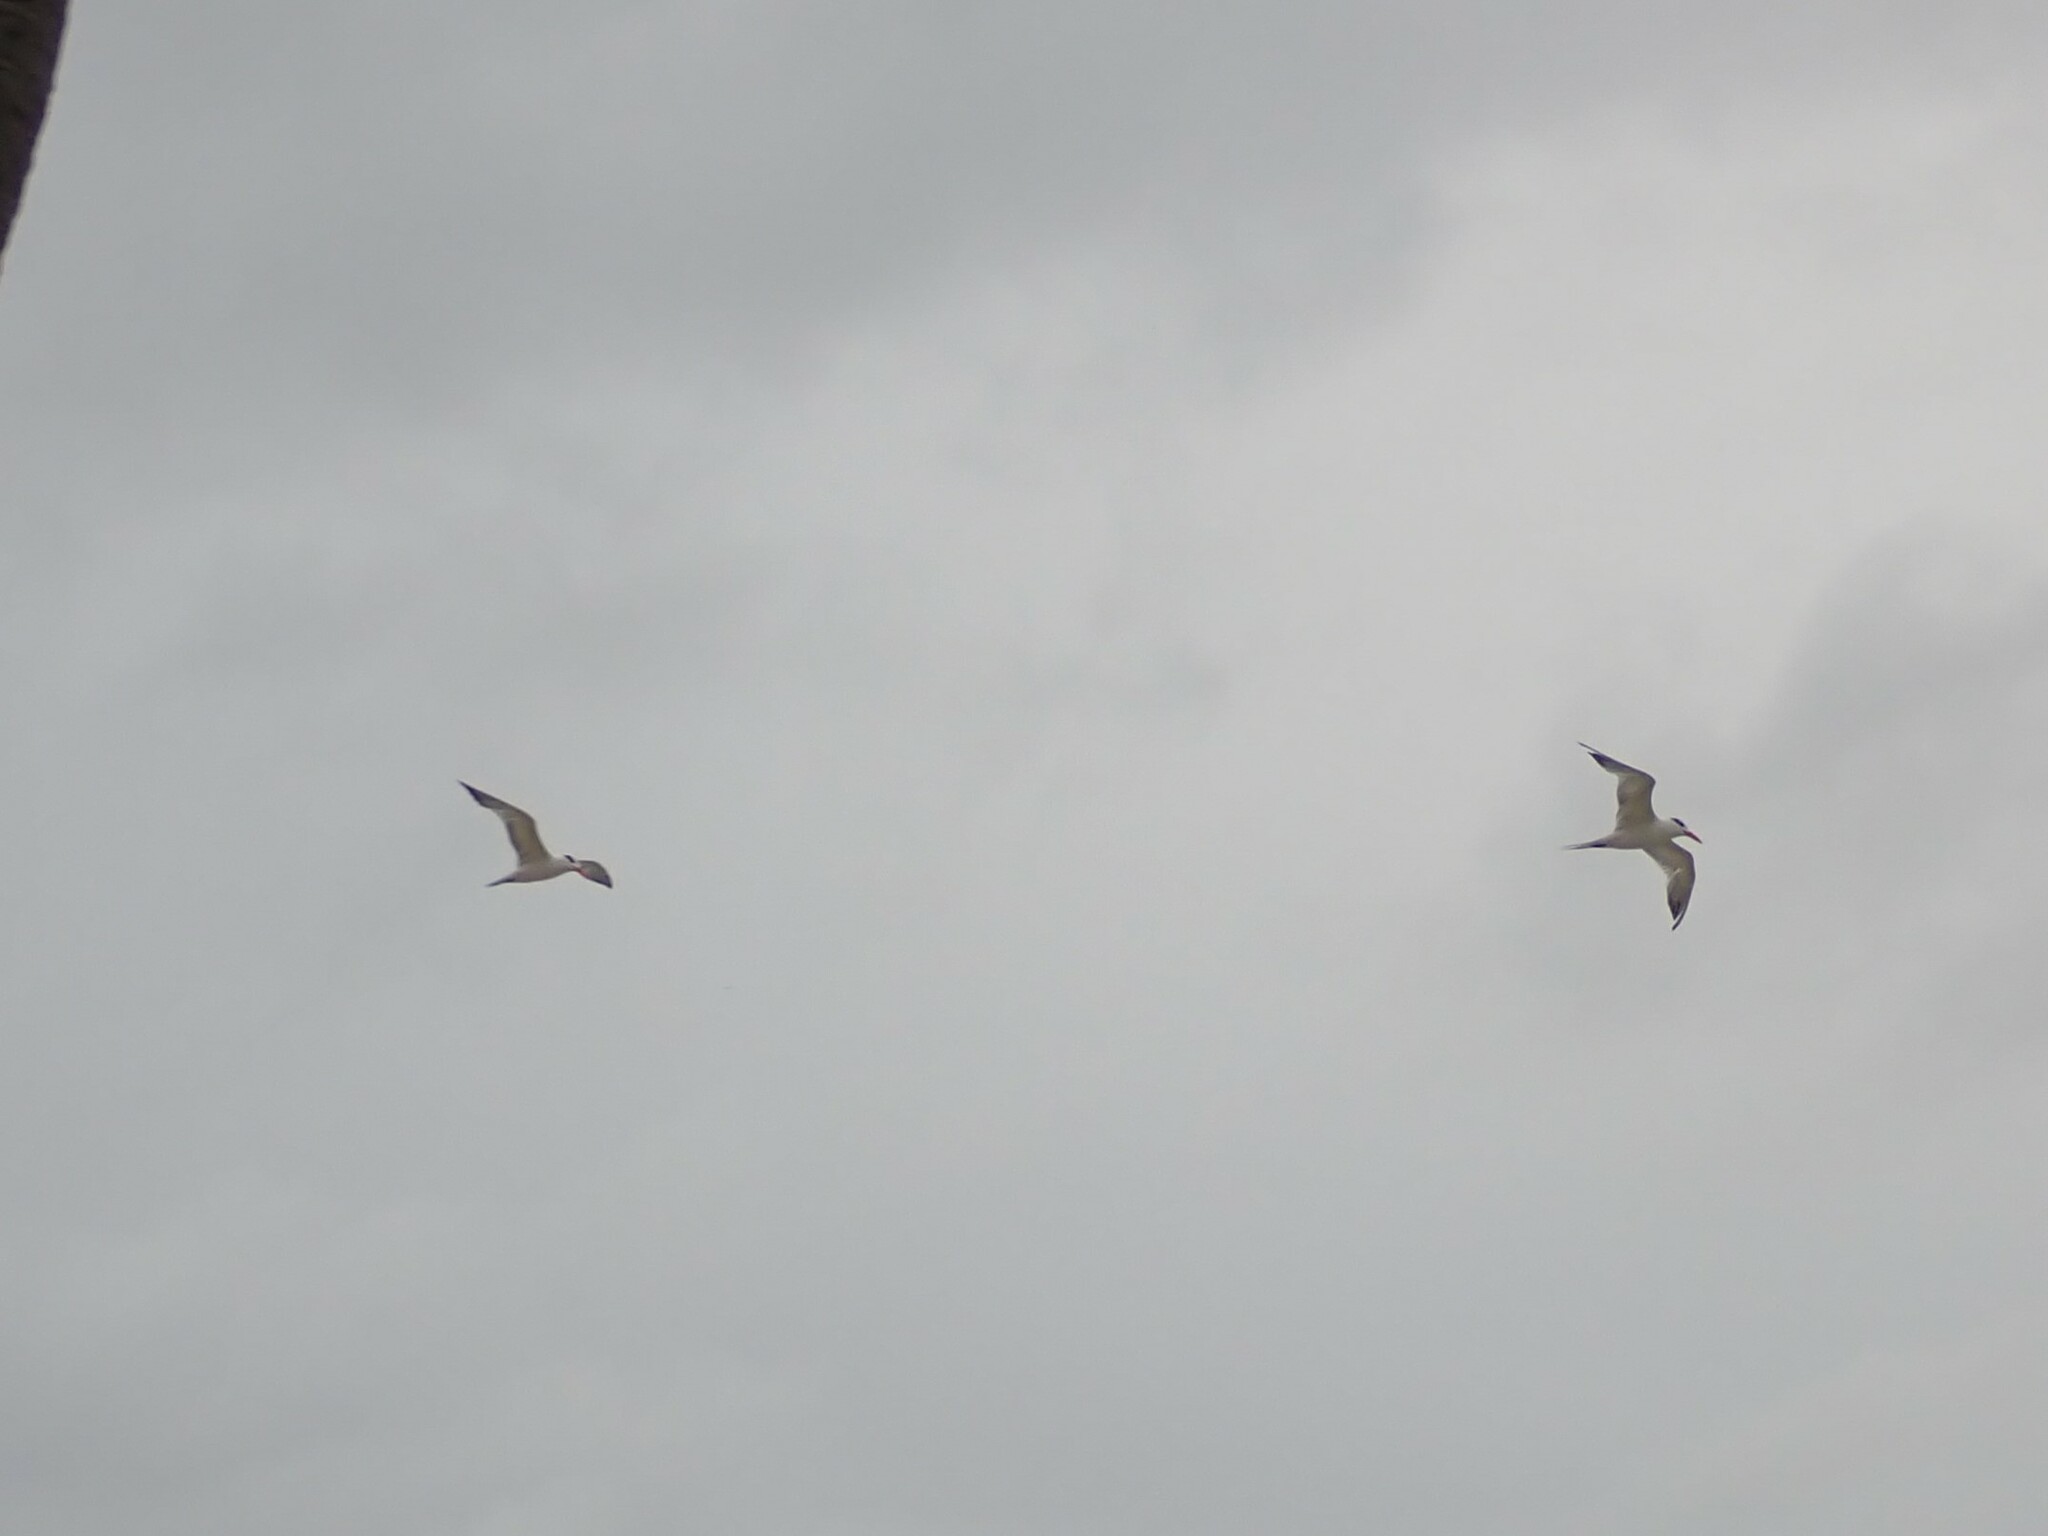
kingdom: Animalia
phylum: Chordata
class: Aves
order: Charadriiformes
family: Laridae
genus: Thalasseus
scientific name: Thalasseus maximus
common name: Royal tern
